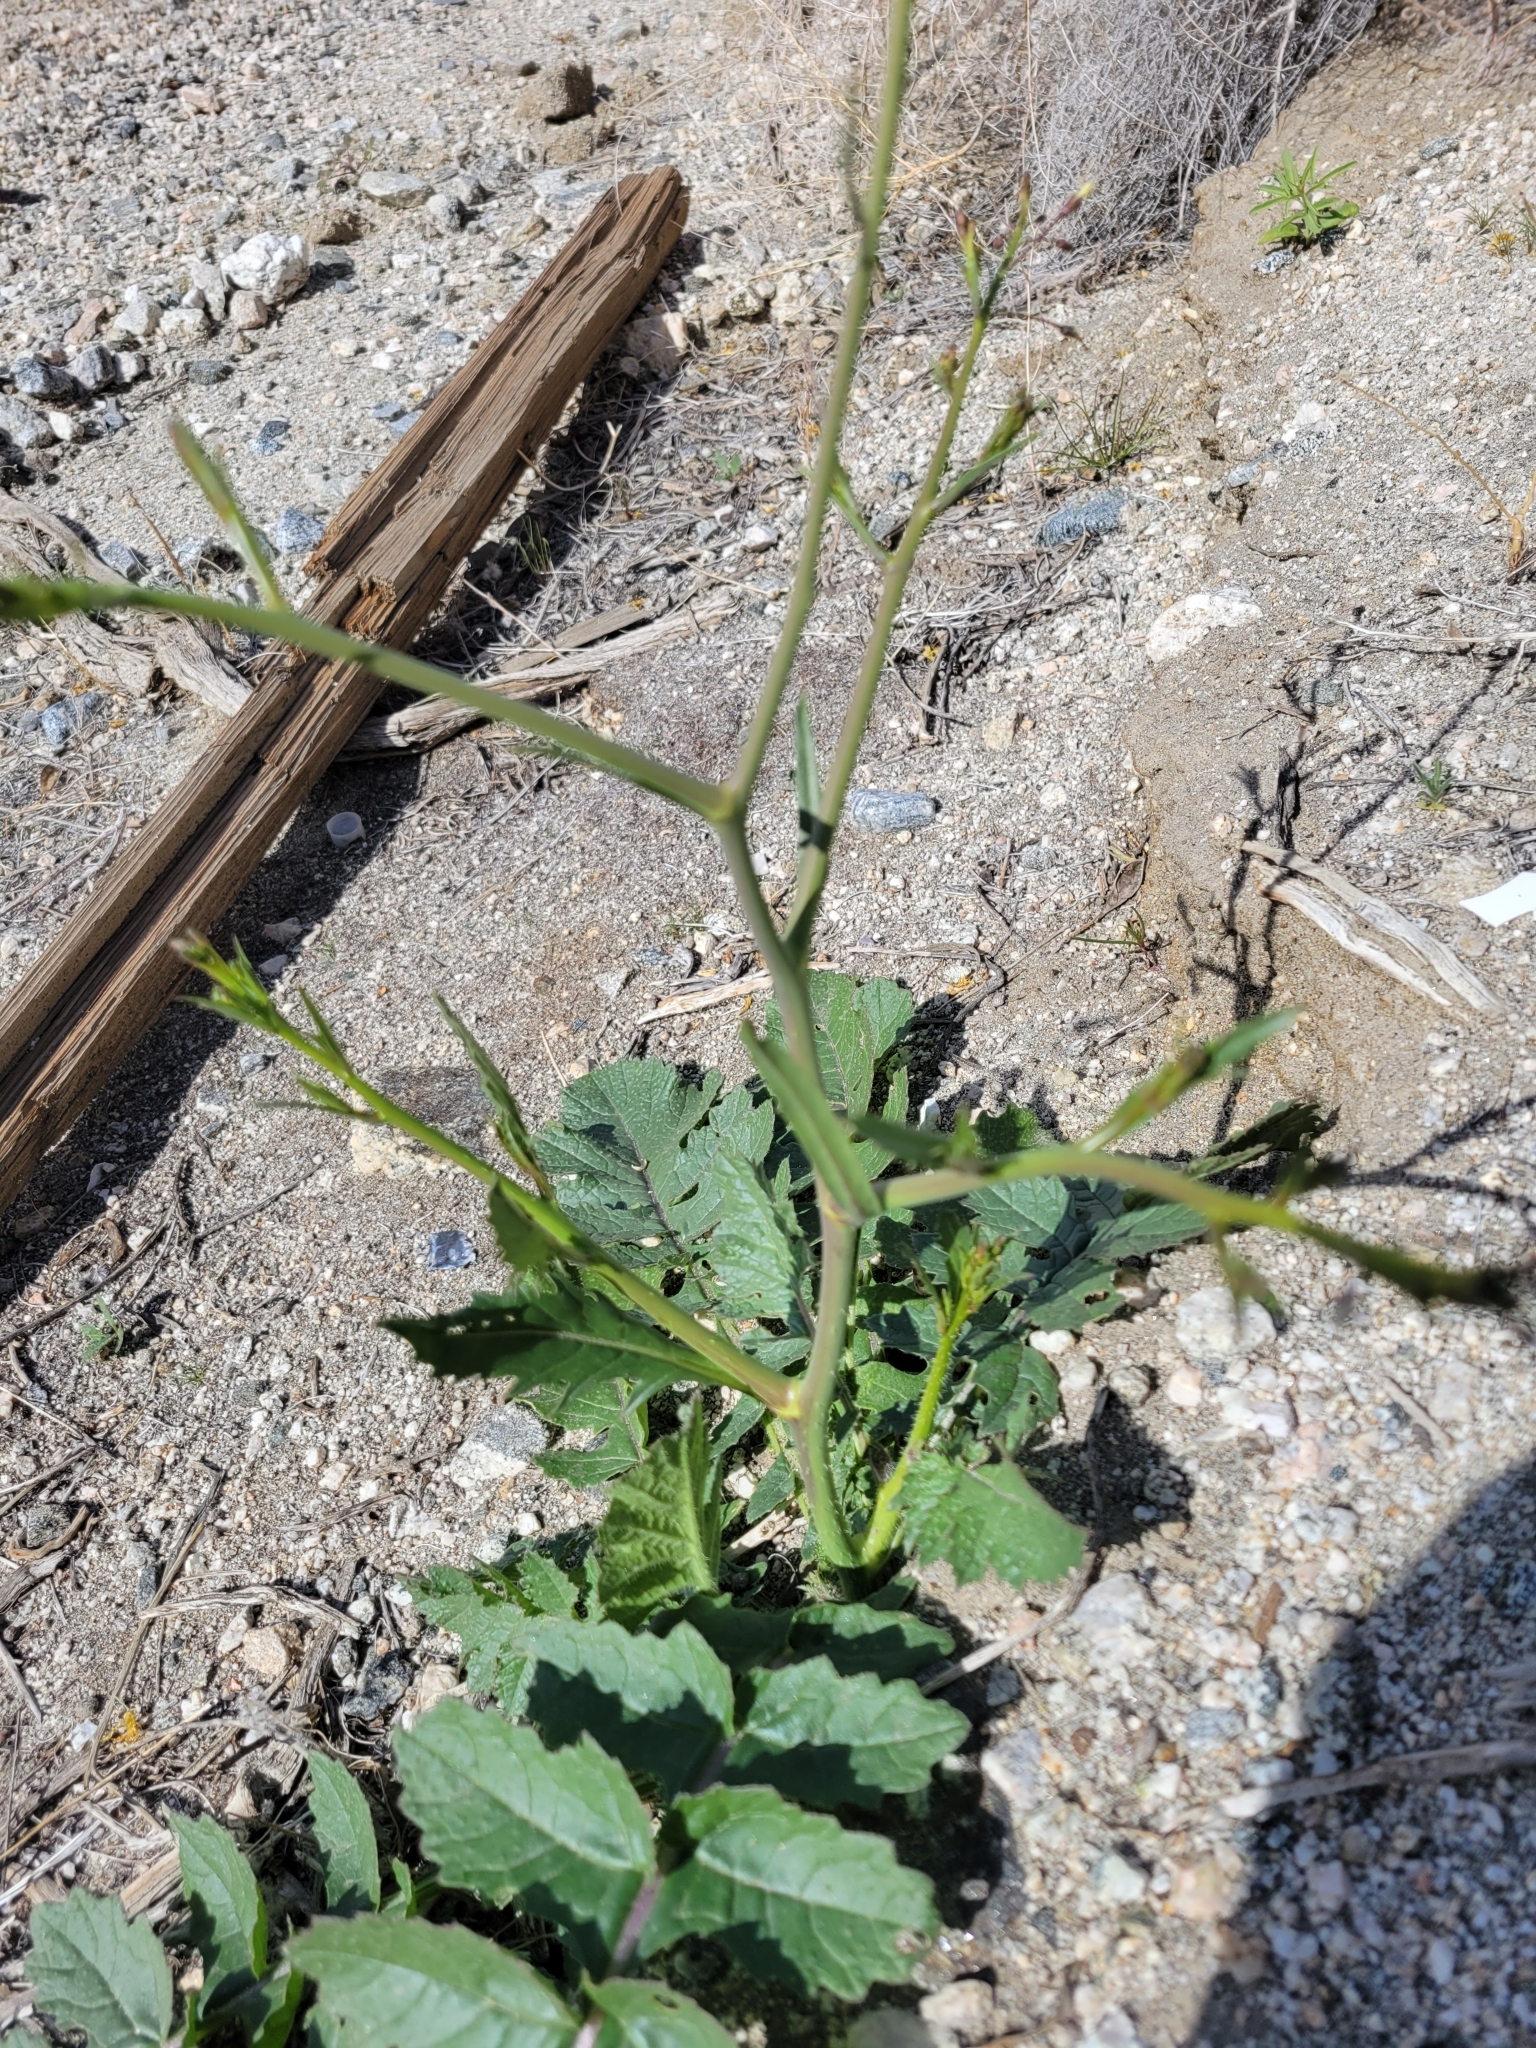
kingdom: Plantae
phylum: Tracheophyta
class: Magnoliopsida
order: Brassicales
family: Brassicaceae
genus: Brassica
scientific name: Brassica tournefortii
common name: Pale cabbage
